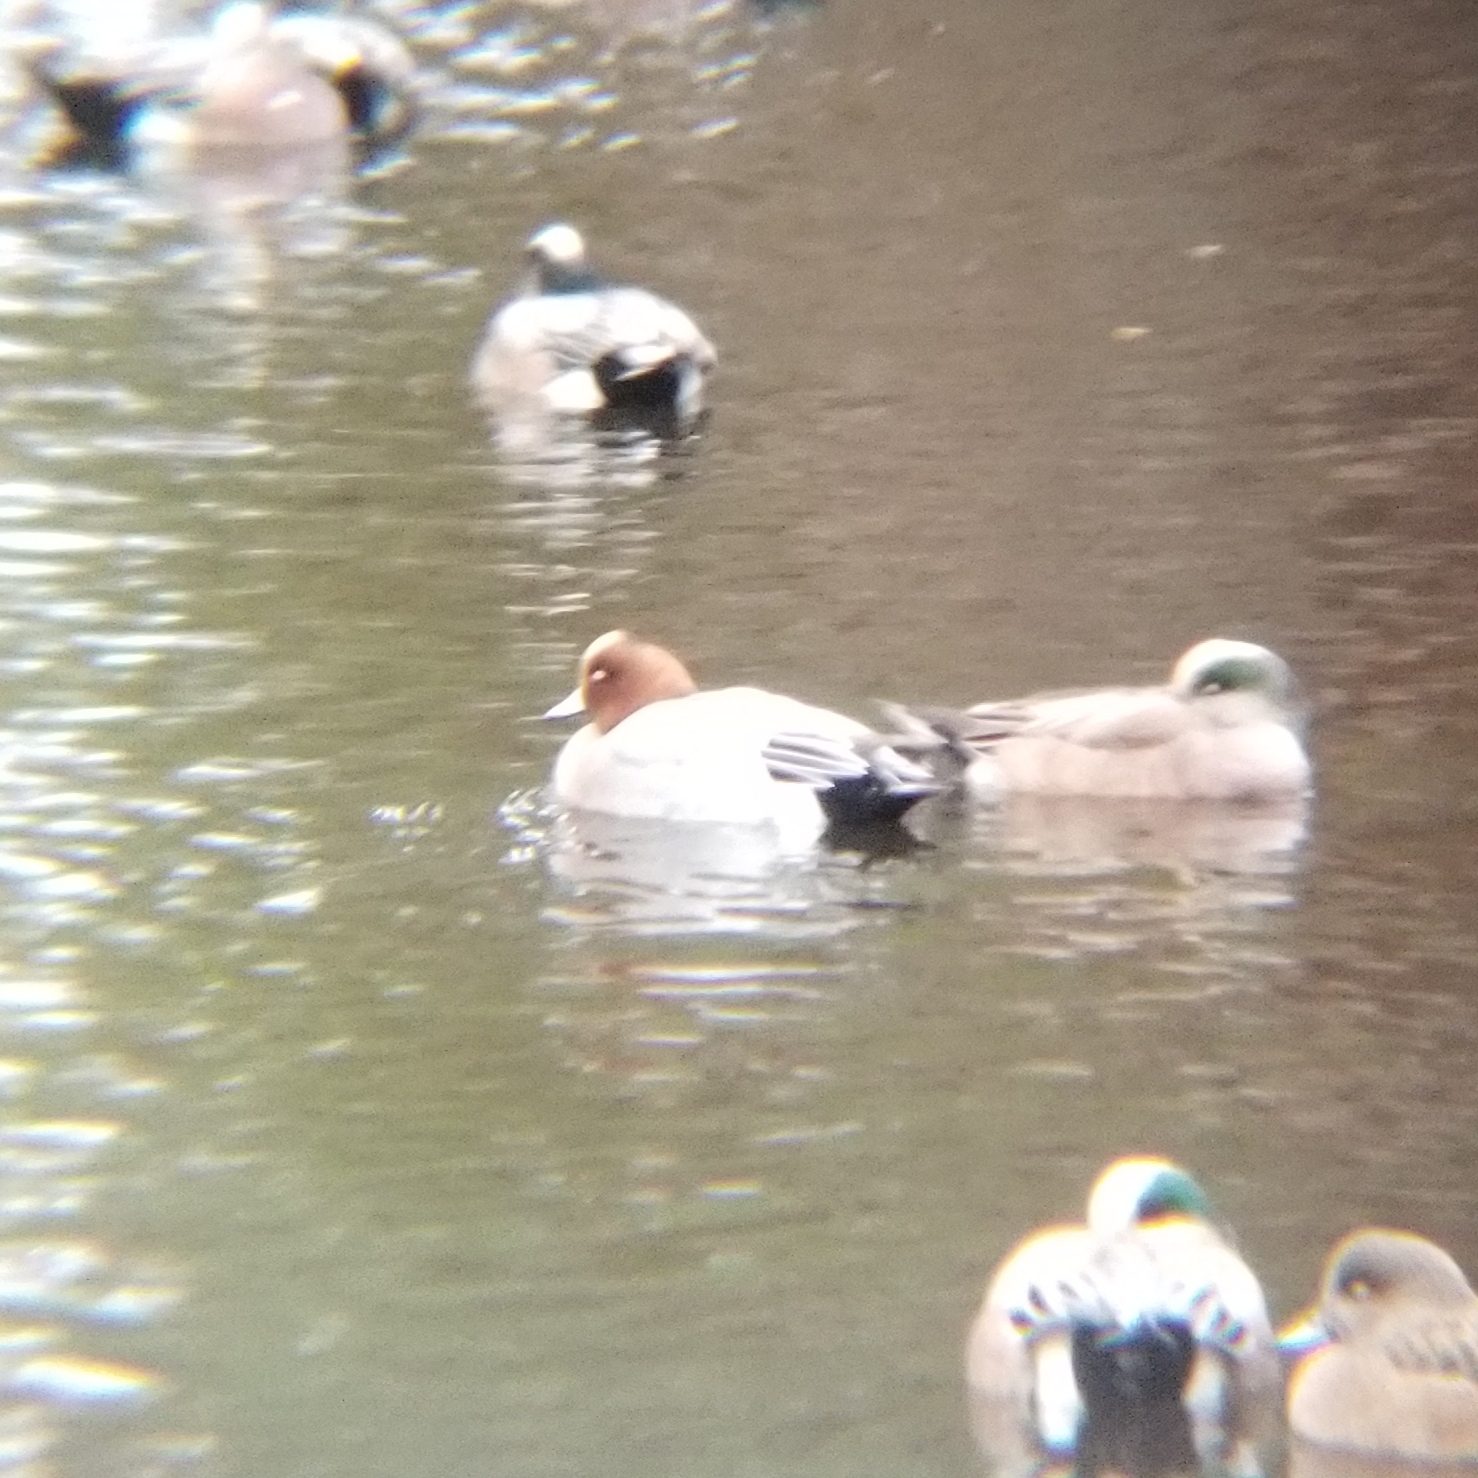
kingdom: Animalia
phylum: Chordata
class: Aves
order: Anseriformes
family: Anatidae
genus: Mareca
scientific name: Mareca penelope
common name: Eurasian wigeon
